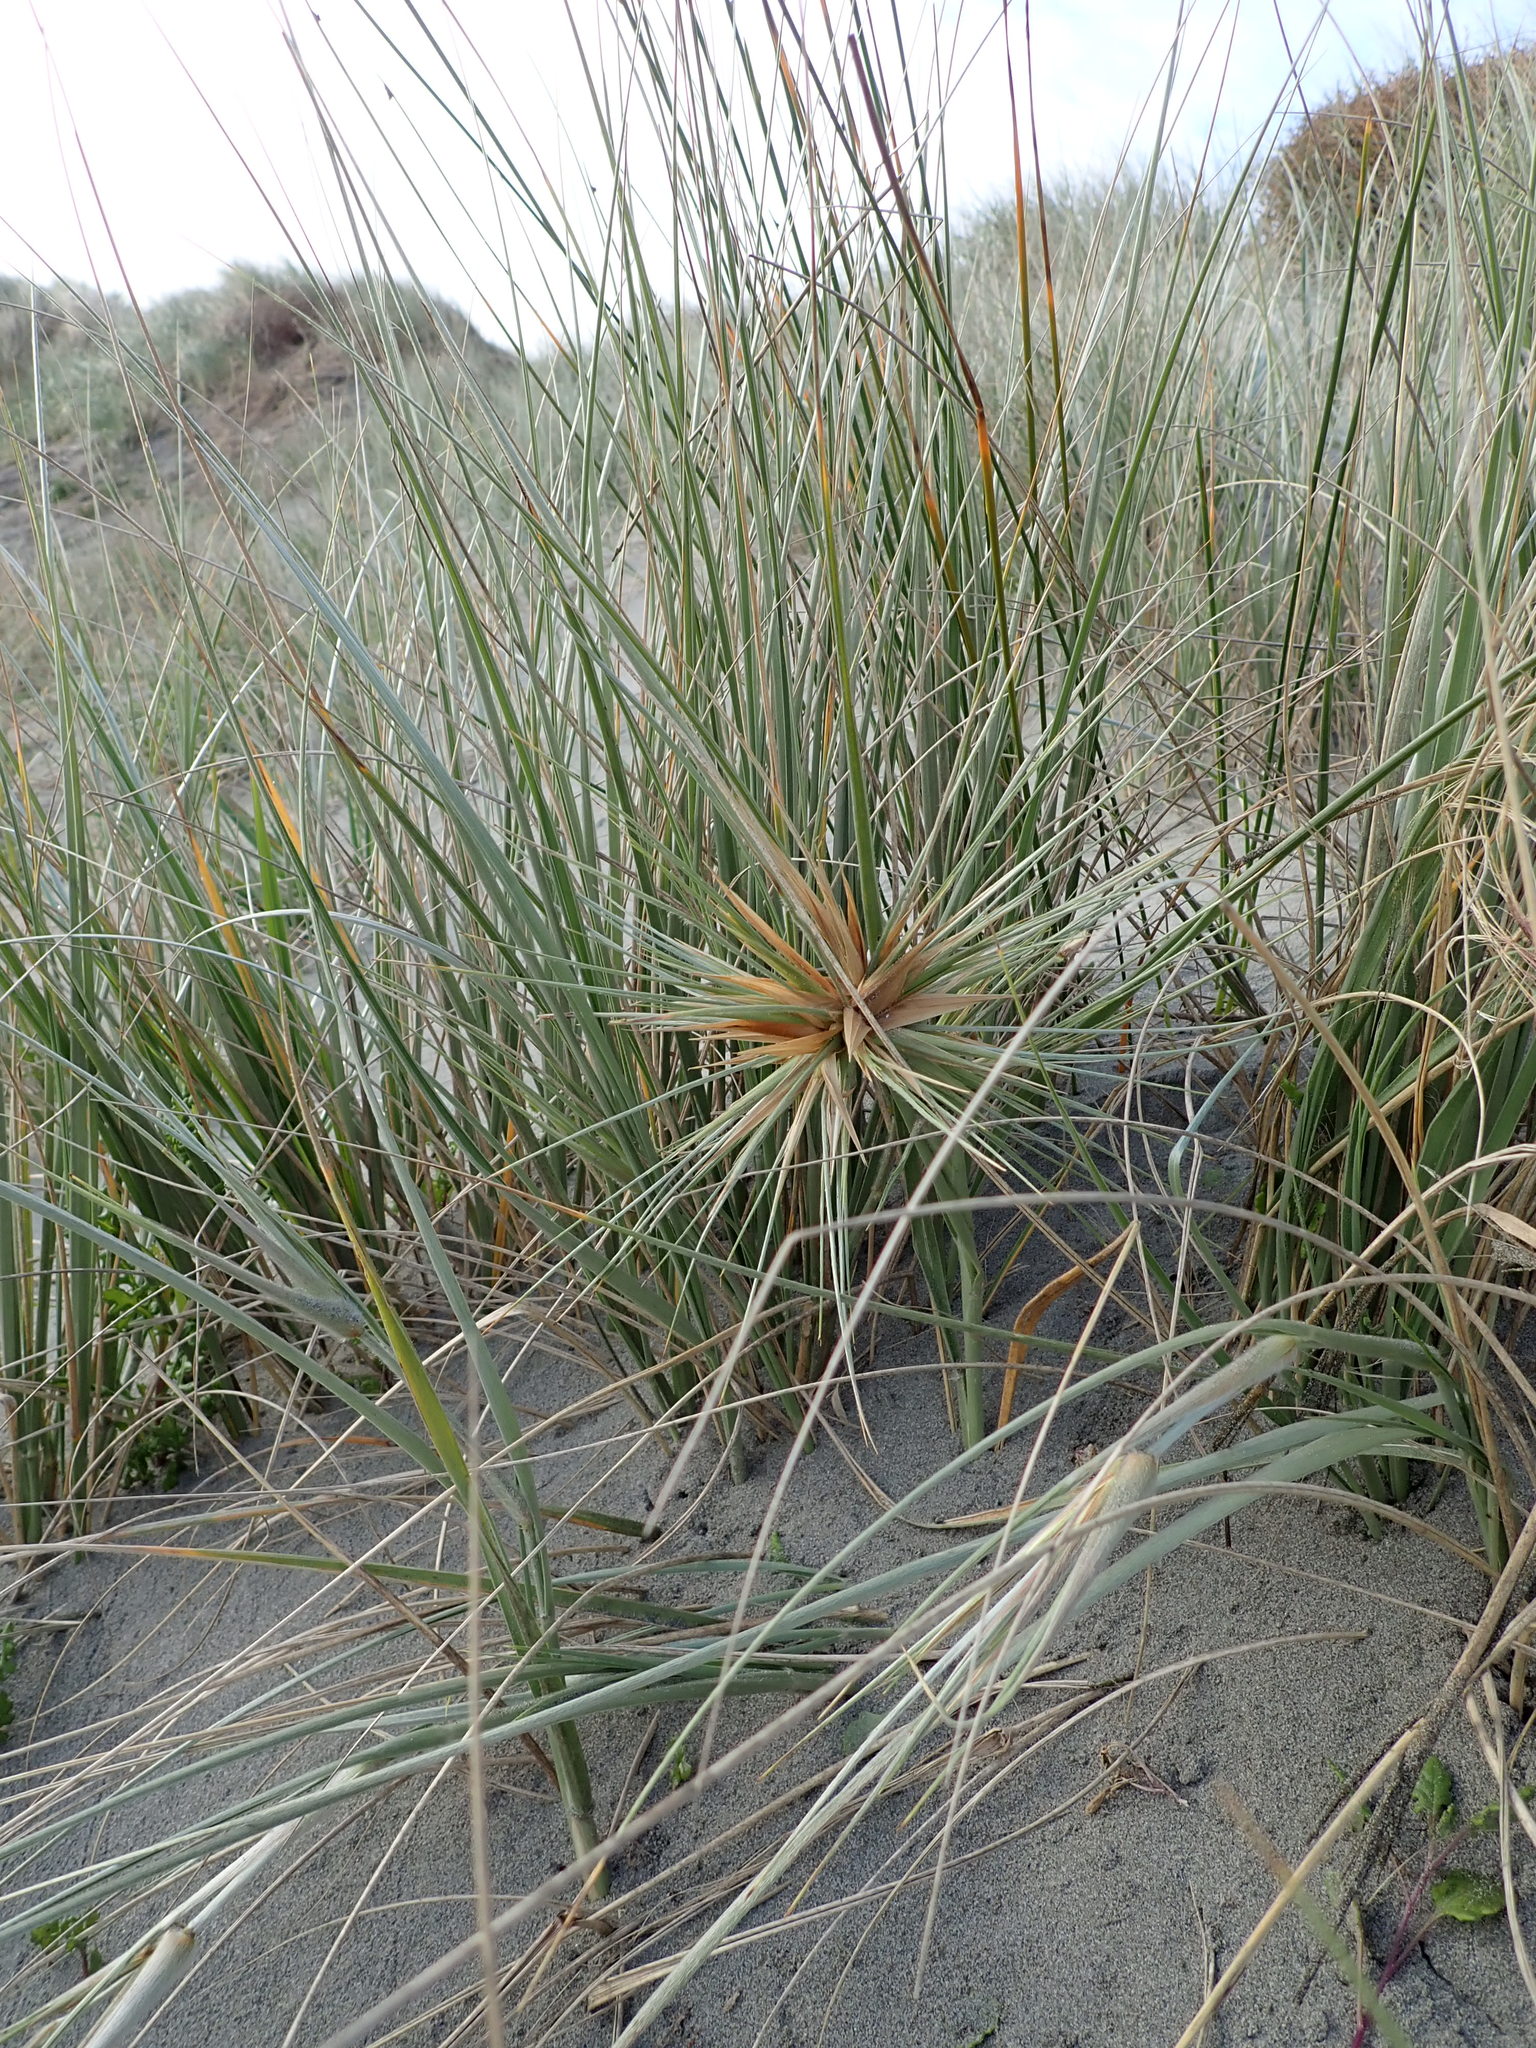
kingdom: Plantae
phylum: Tracheophyta
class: Liliopsida
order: Poales
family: Poaceae
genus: Spinifex
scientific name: Spinifex sericeus
